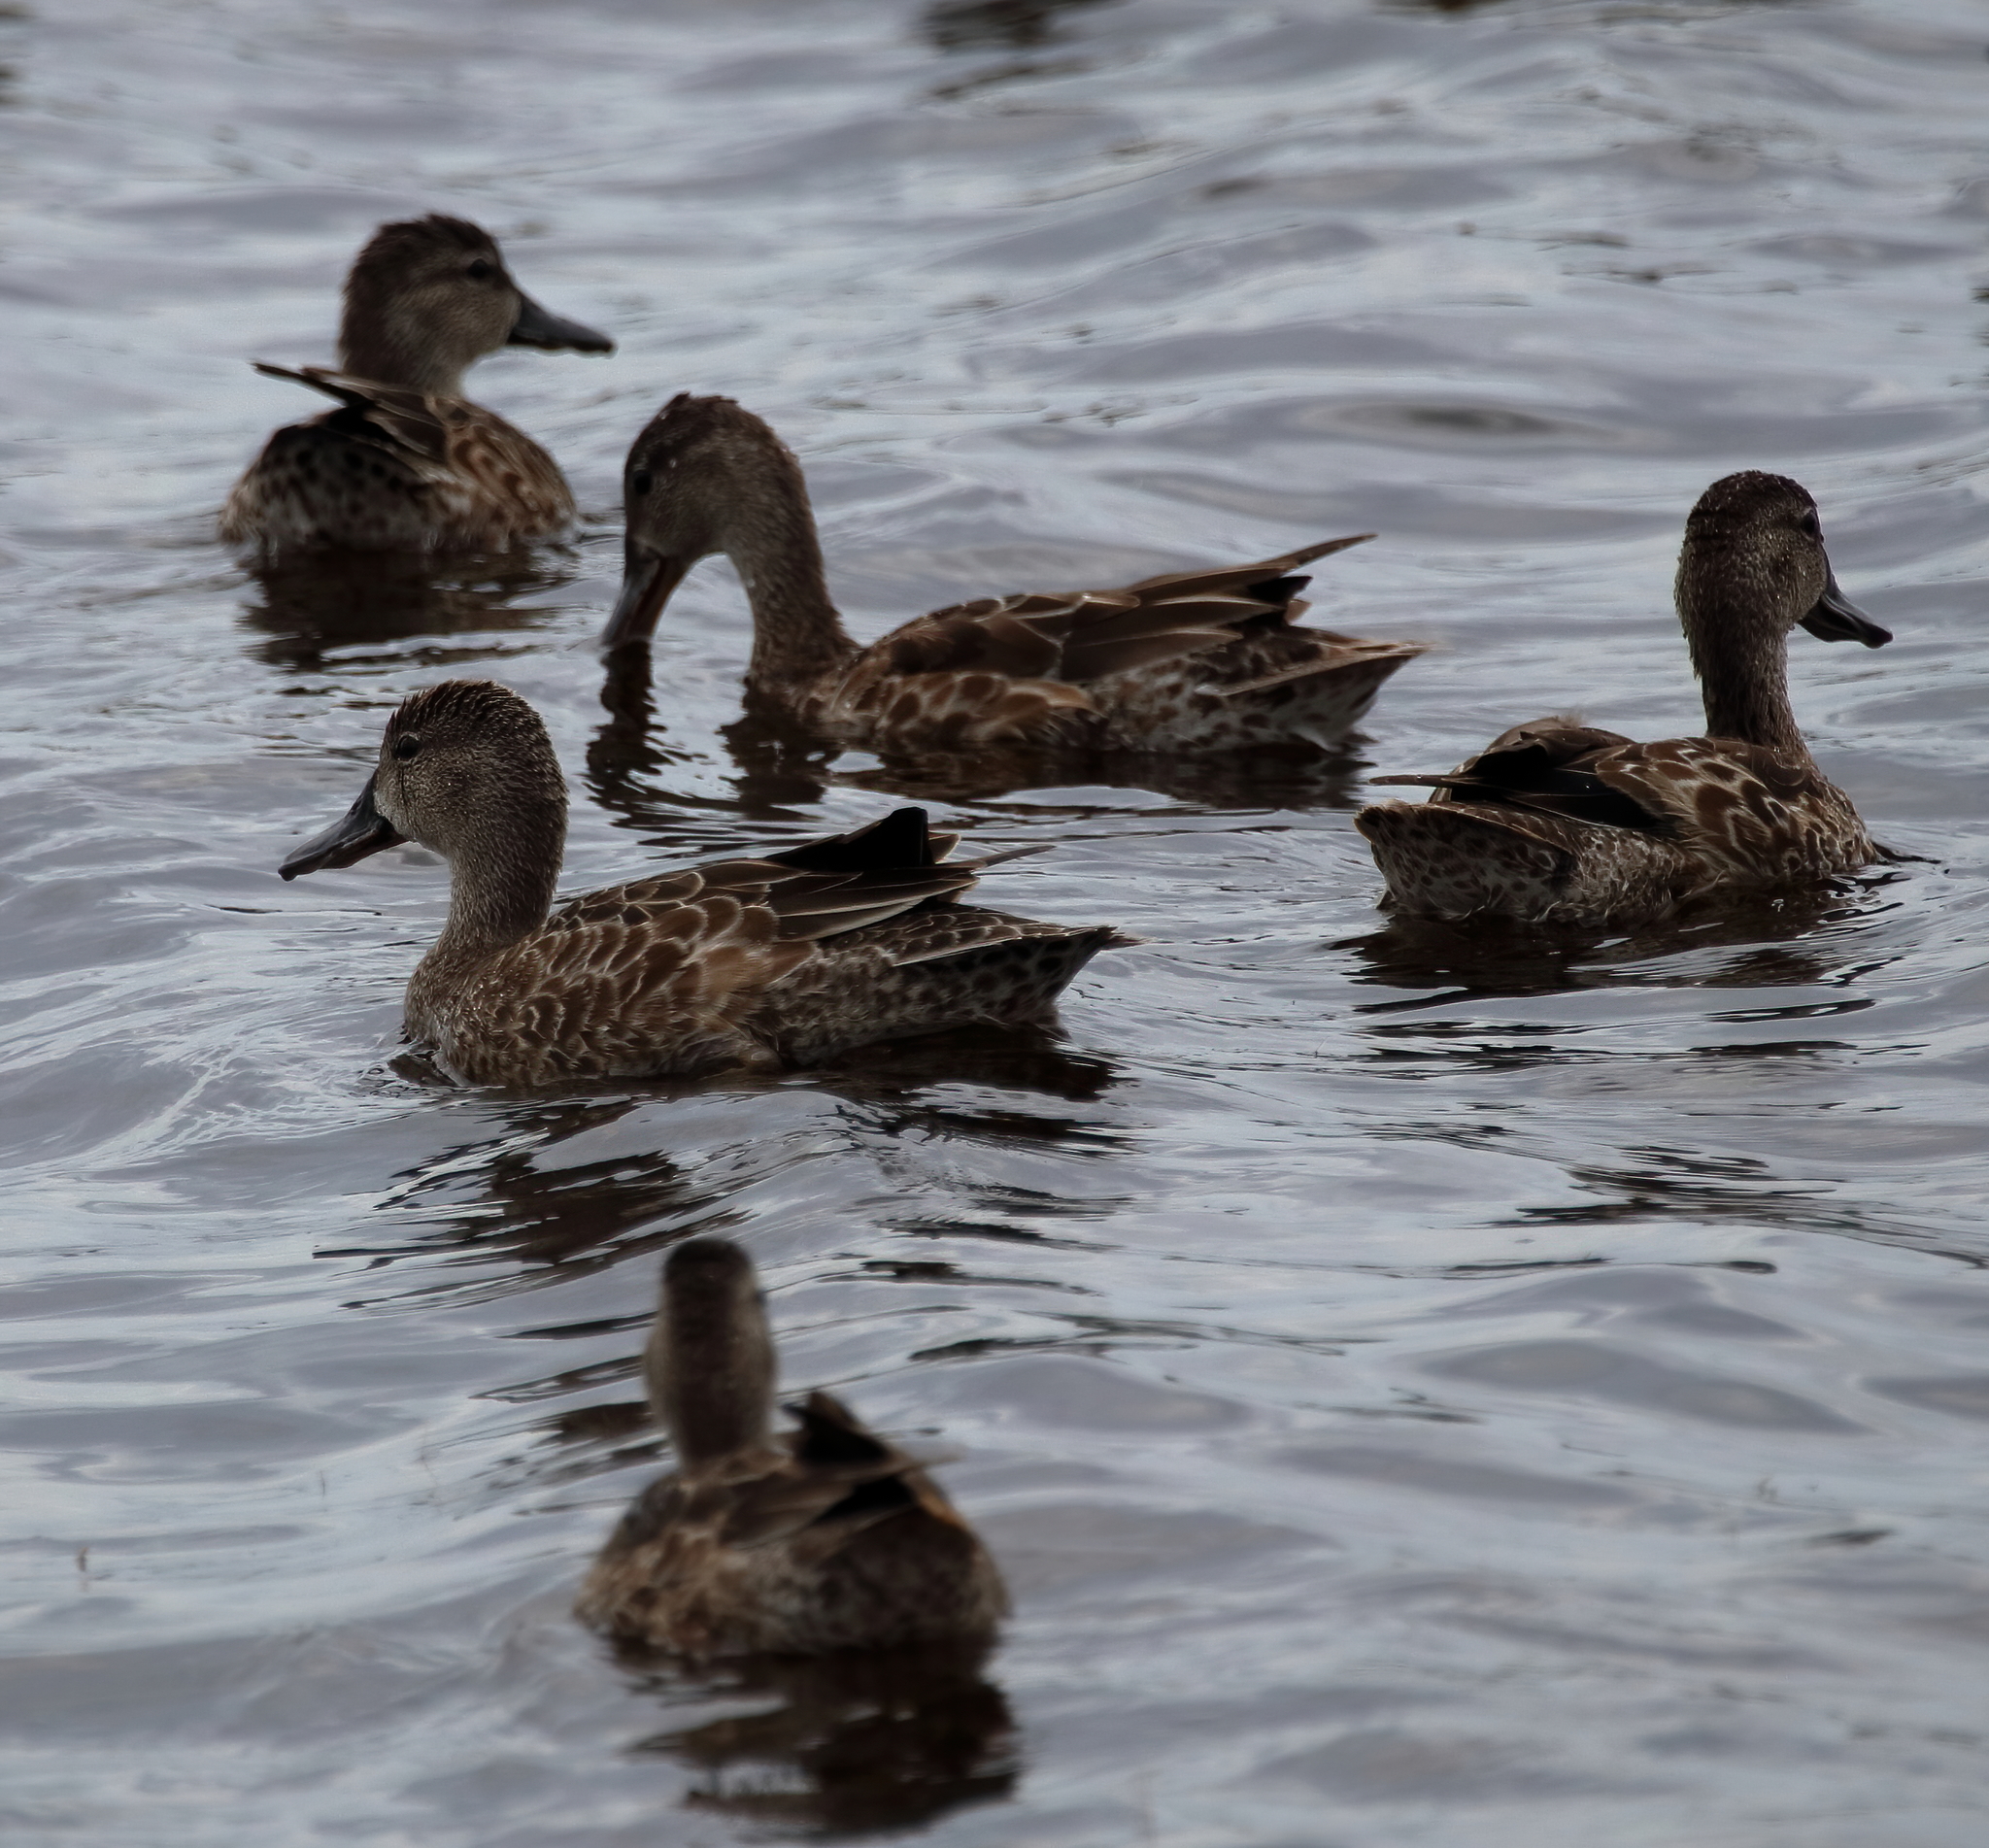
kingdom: Animalia
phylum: Chordata
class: Aves
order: Anseriformes
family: Anatidae
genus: Spatula
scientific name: Spatula discors
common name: Blue-winged teal
